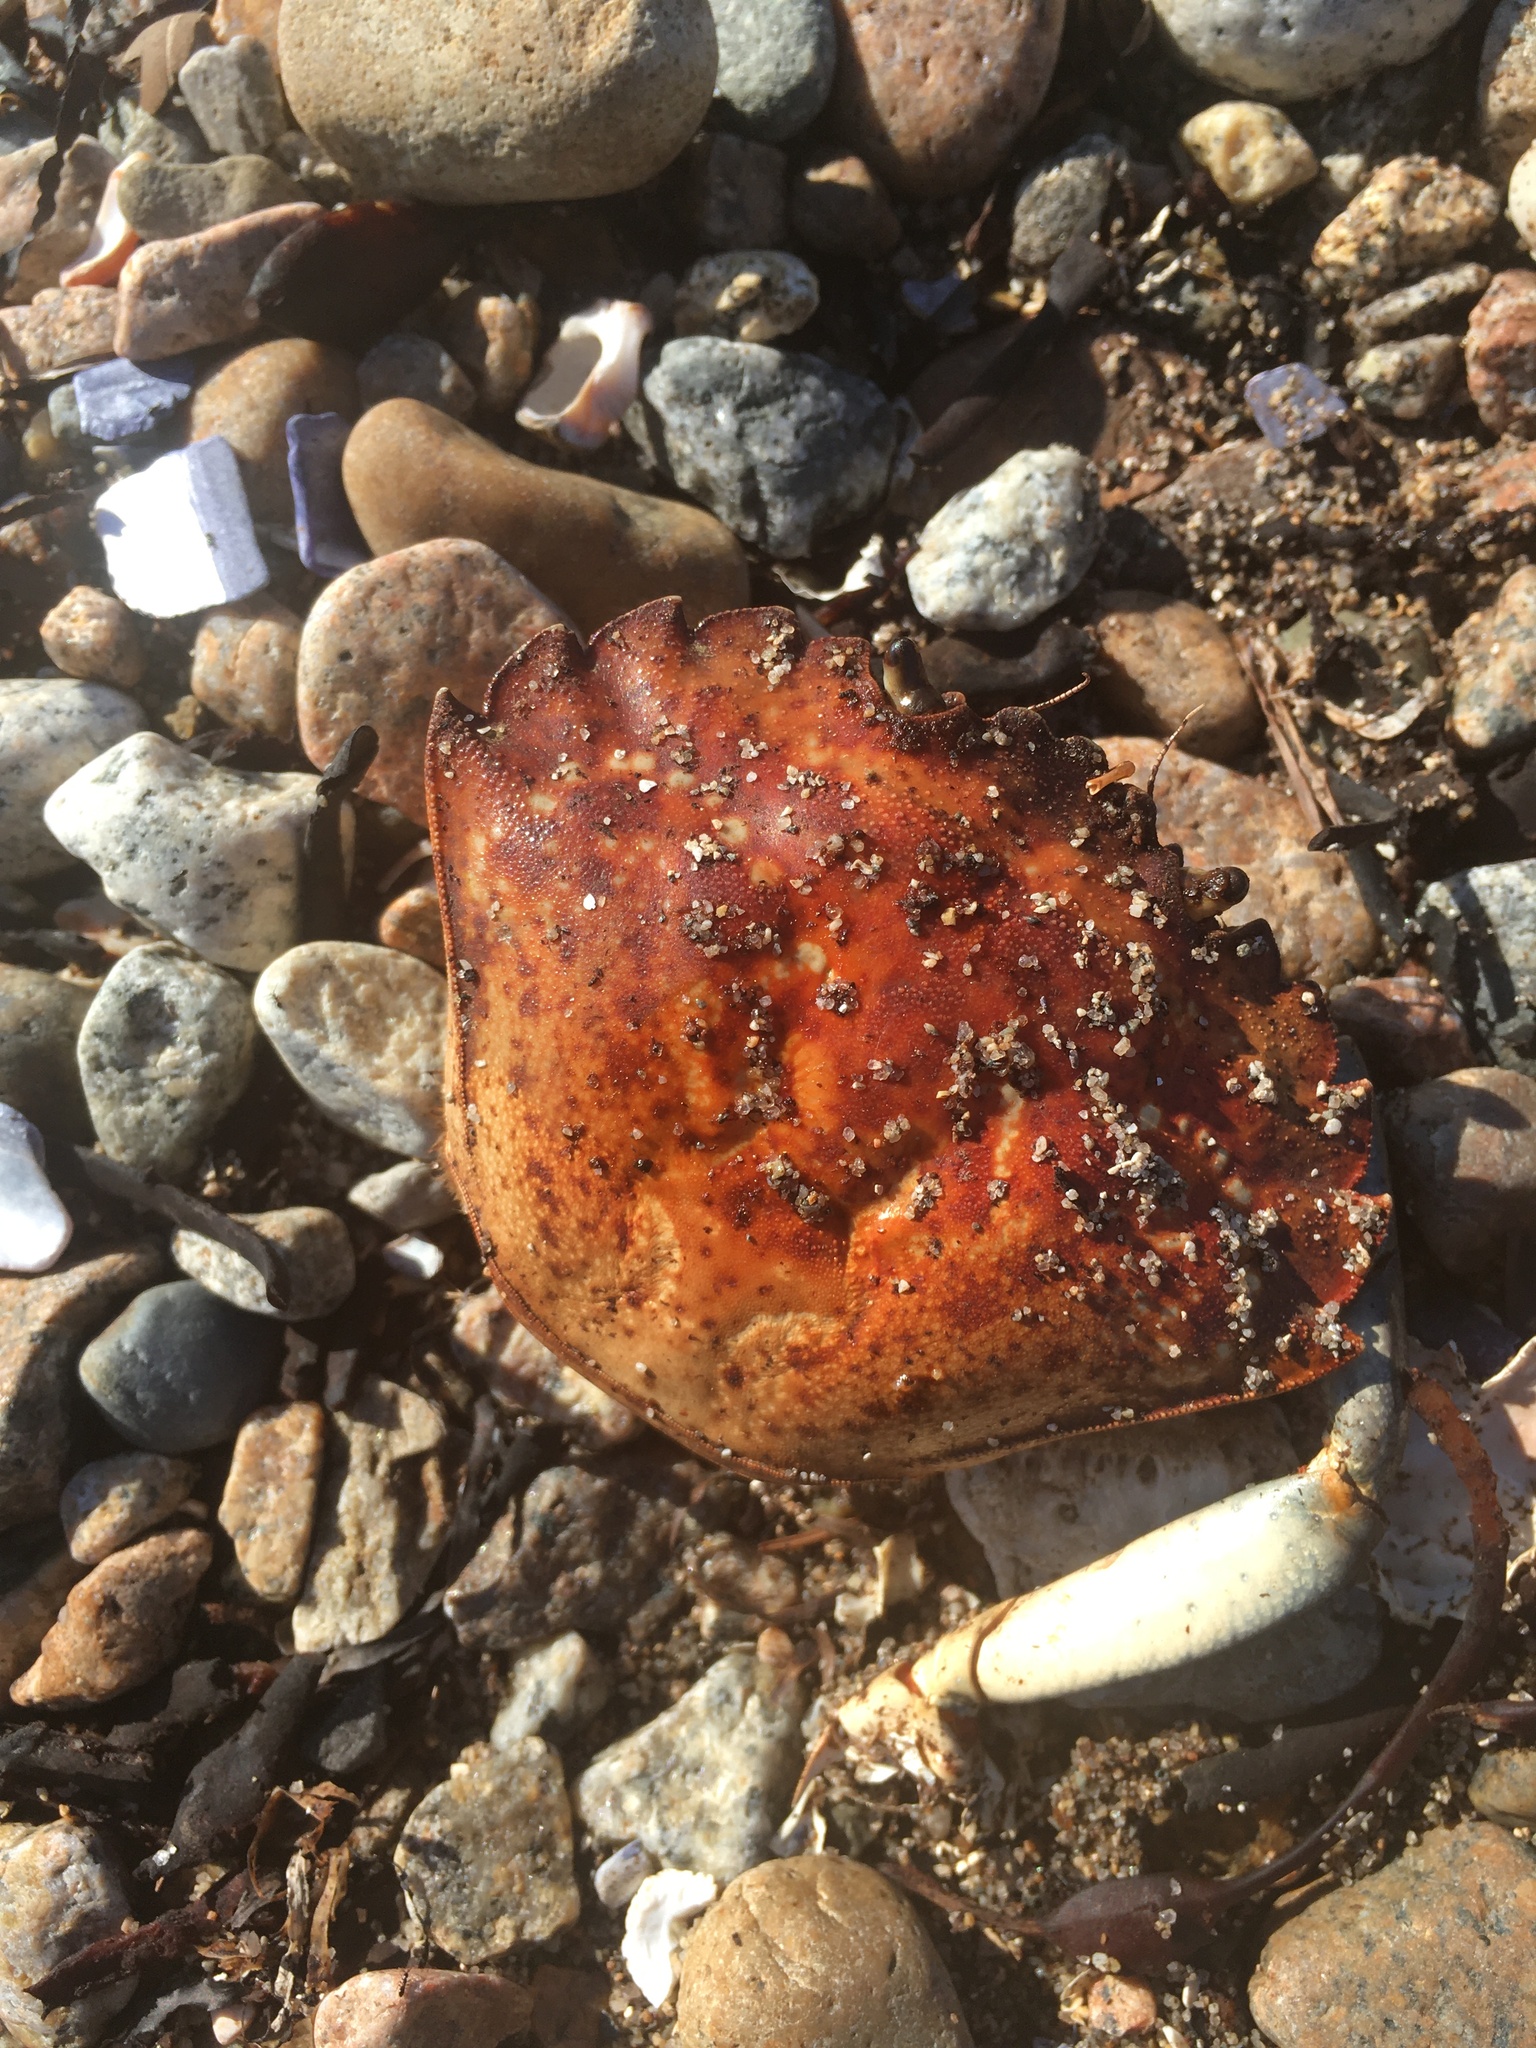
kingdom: Animalia
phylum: Arthropoda
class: Malacostraca
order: Decapoda
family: Carcinidae
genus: Carcinus
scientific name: Carcinus maenas
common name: European green crab
